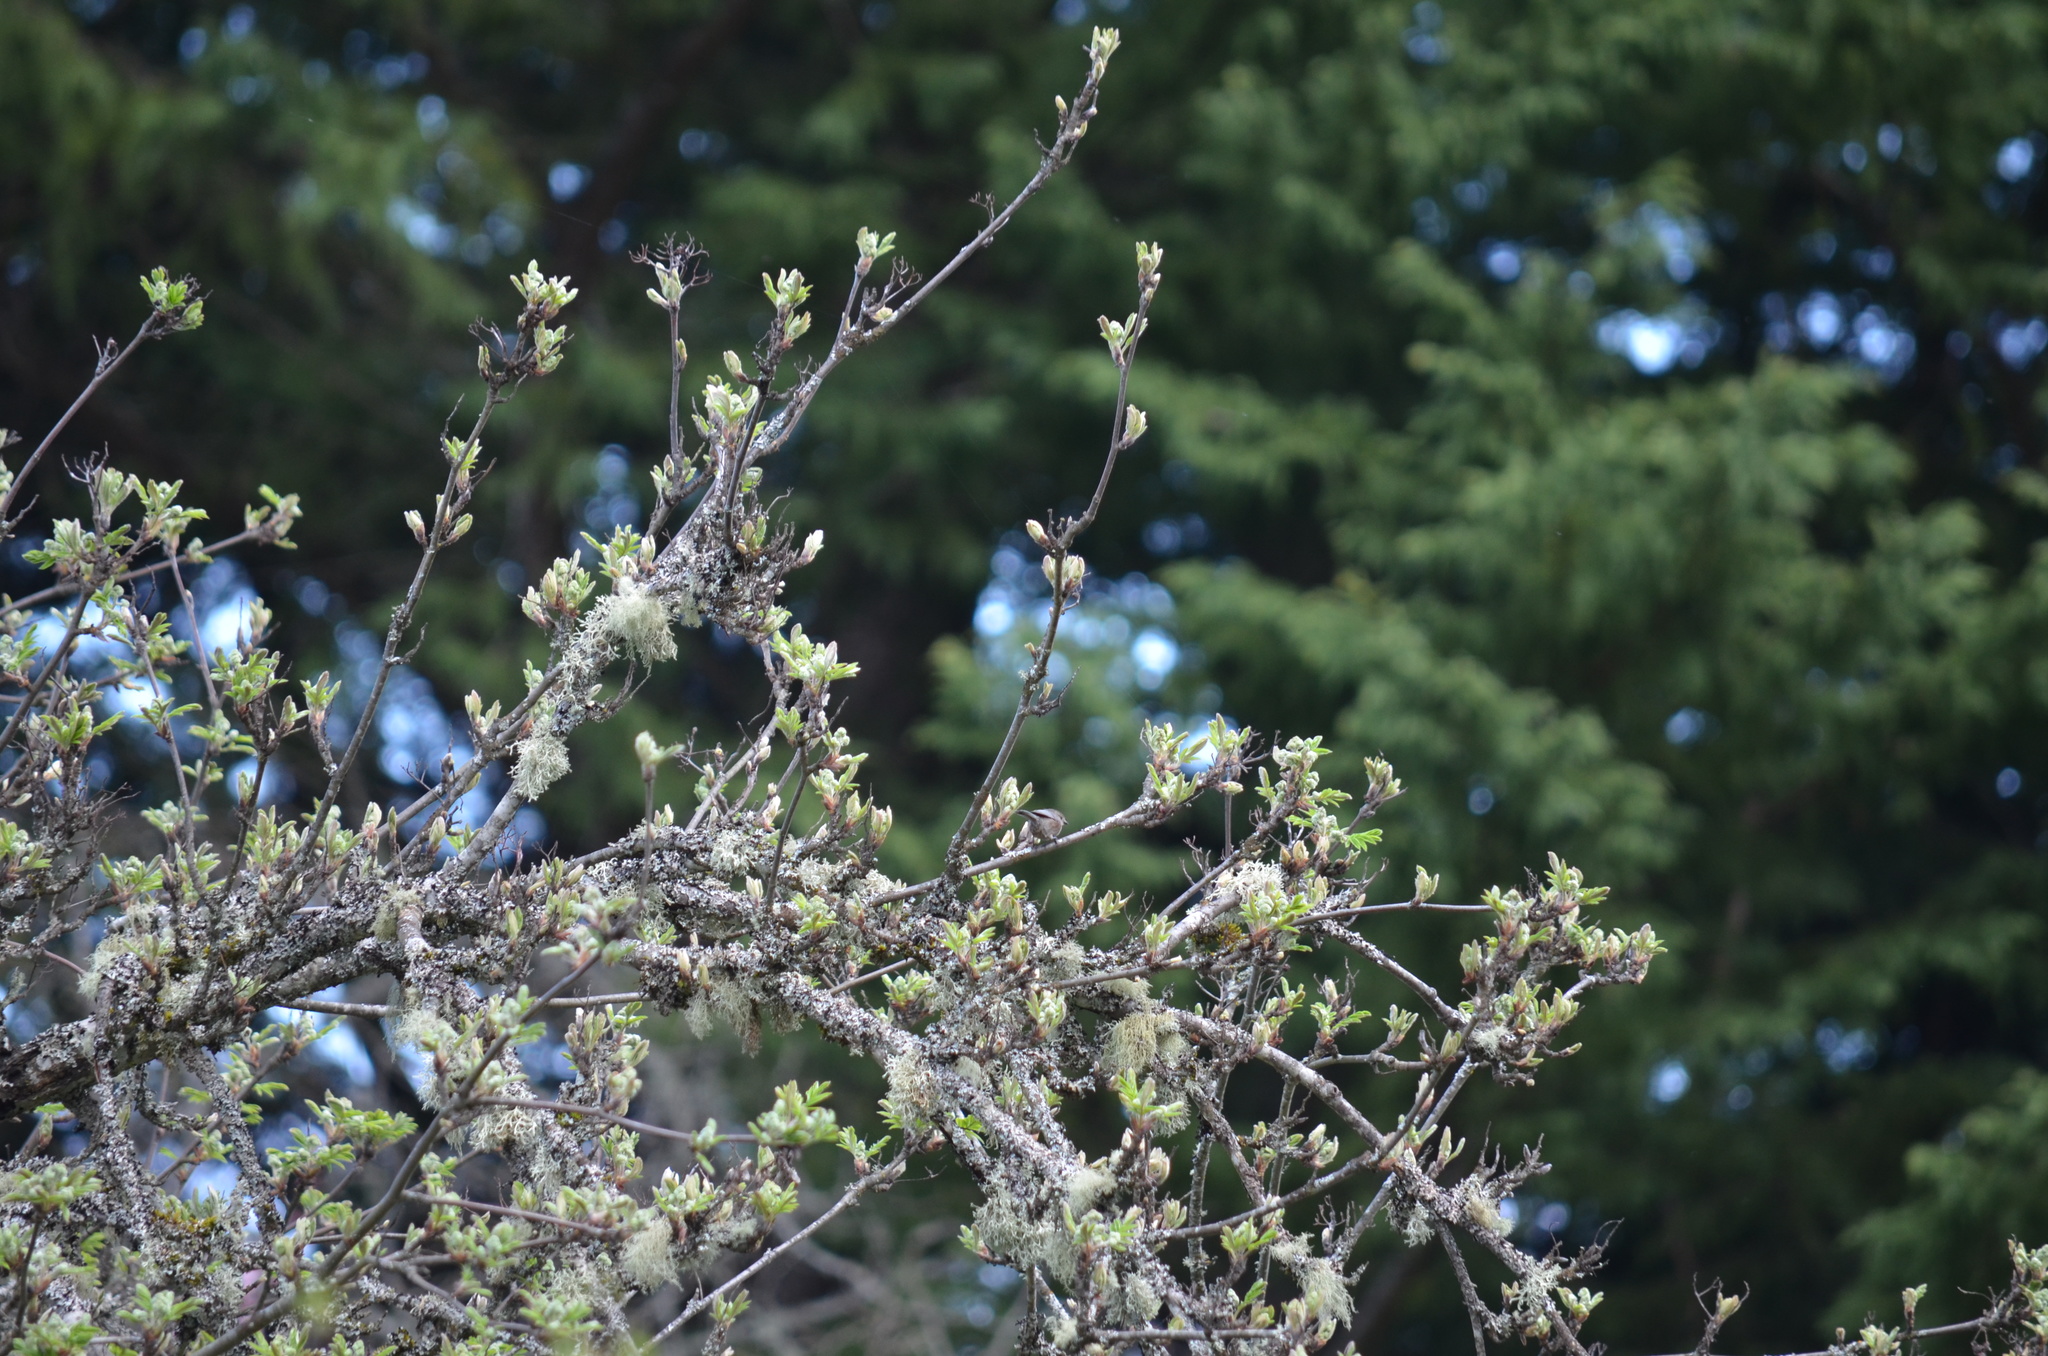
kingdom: Animalia
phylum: Chordata
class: Aves
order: Passeriformes
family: Aegithalidae
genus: Psaltriparus
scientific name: Psaltriparus minimus
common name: American bushtit
